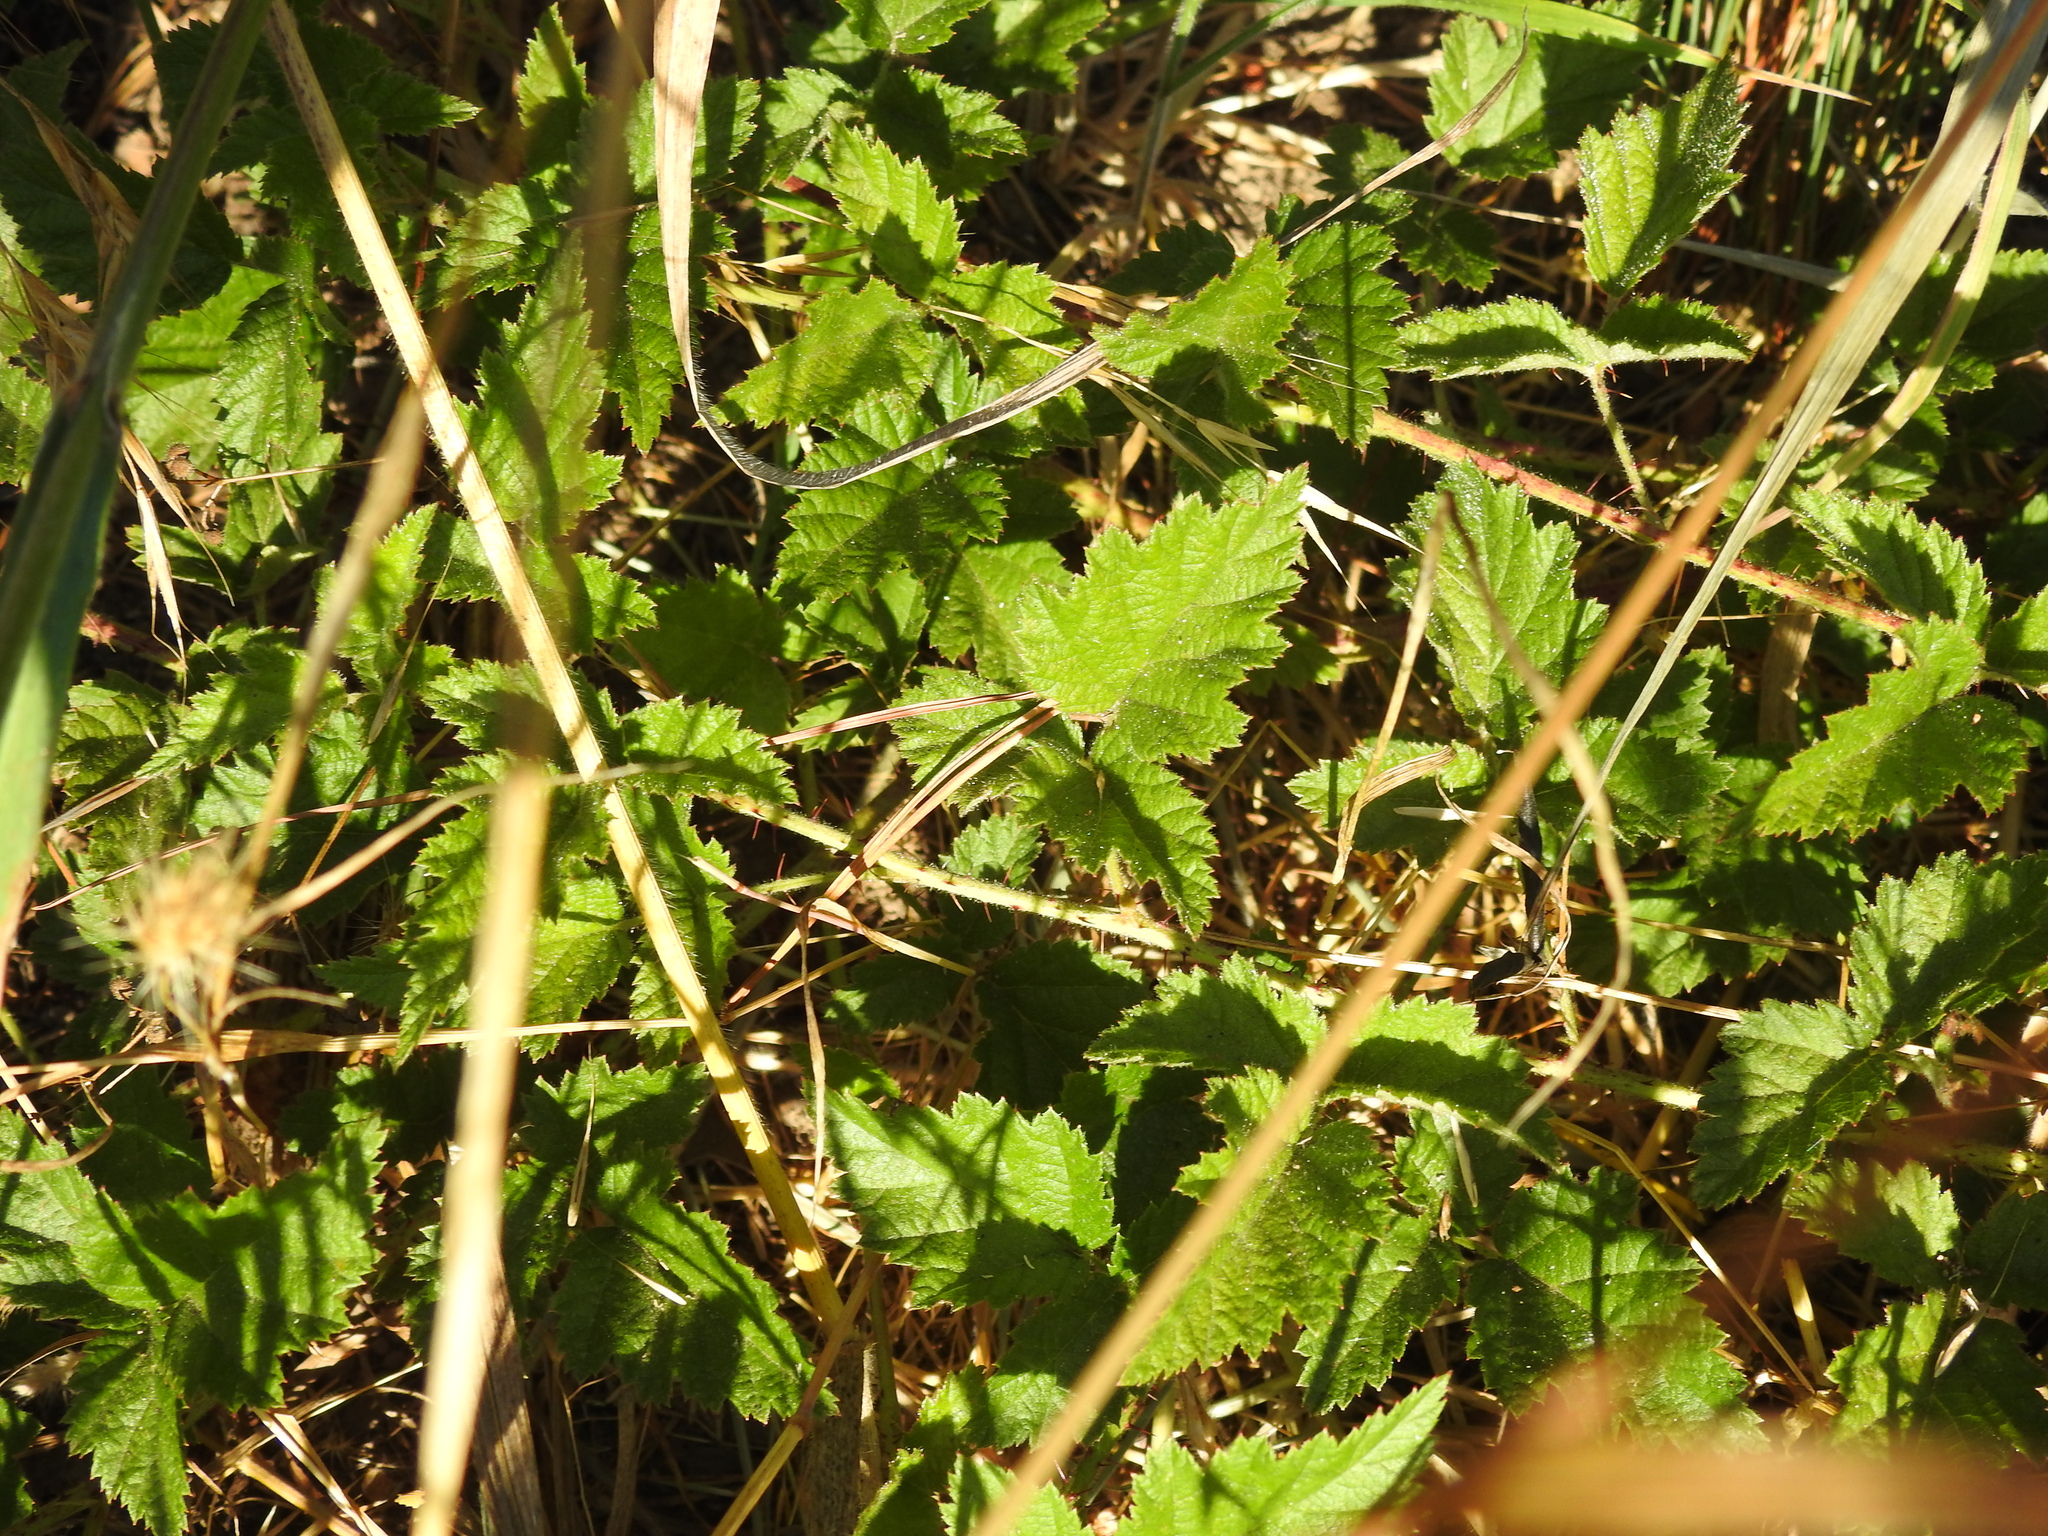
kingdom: Plantae
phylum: Tracheophyta
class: Magnoliopsida
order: Rosales
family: Rosaceae
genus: Rubus
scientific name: Rubus ursinus
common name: Pacific blackberry
